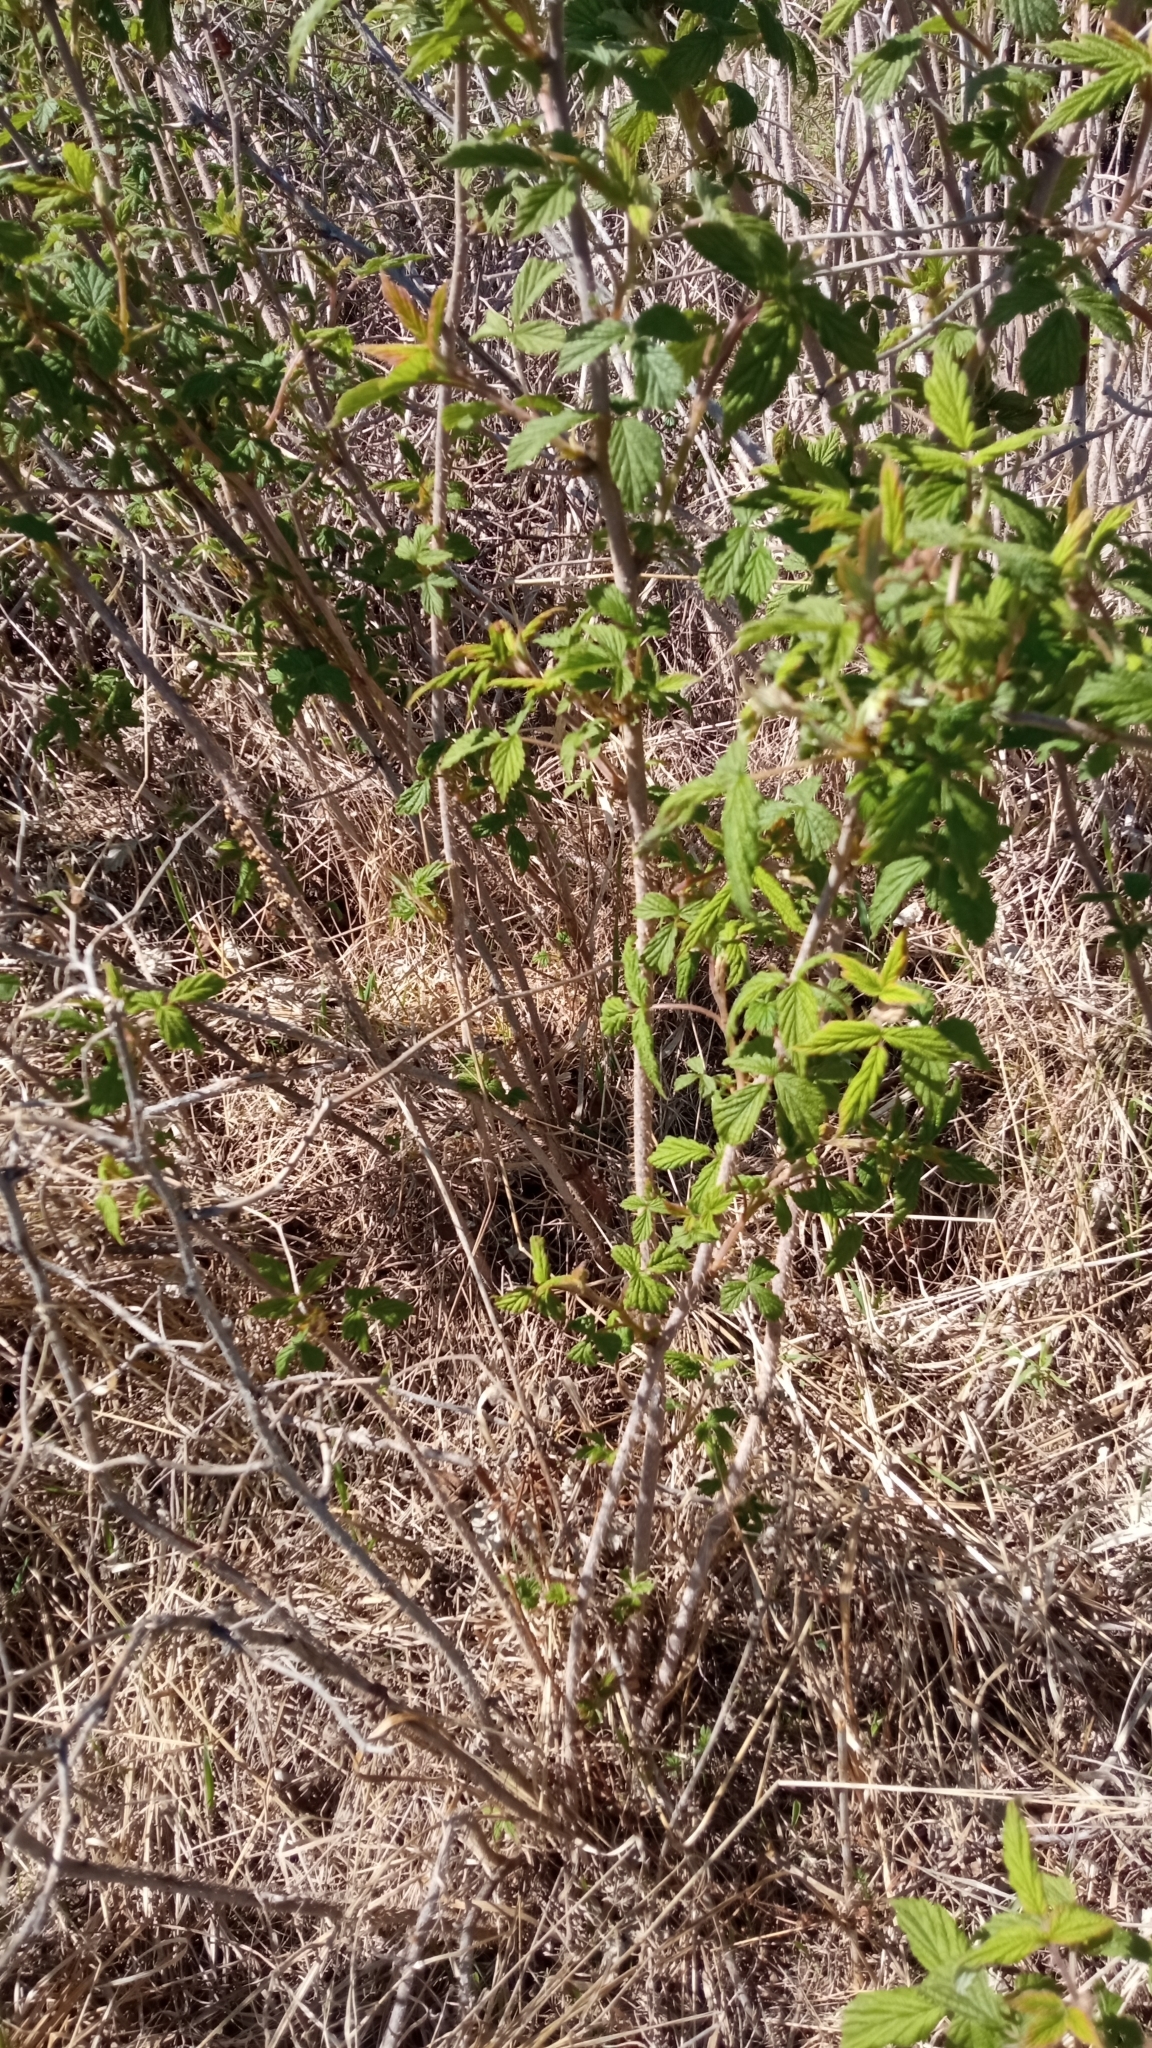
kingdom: Plantae
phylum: Tracheophyta
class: Magnoliopsida
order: Rosales
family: Rosaceae
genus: Rubus
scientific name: Rubus idaeus
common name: Raspberry
